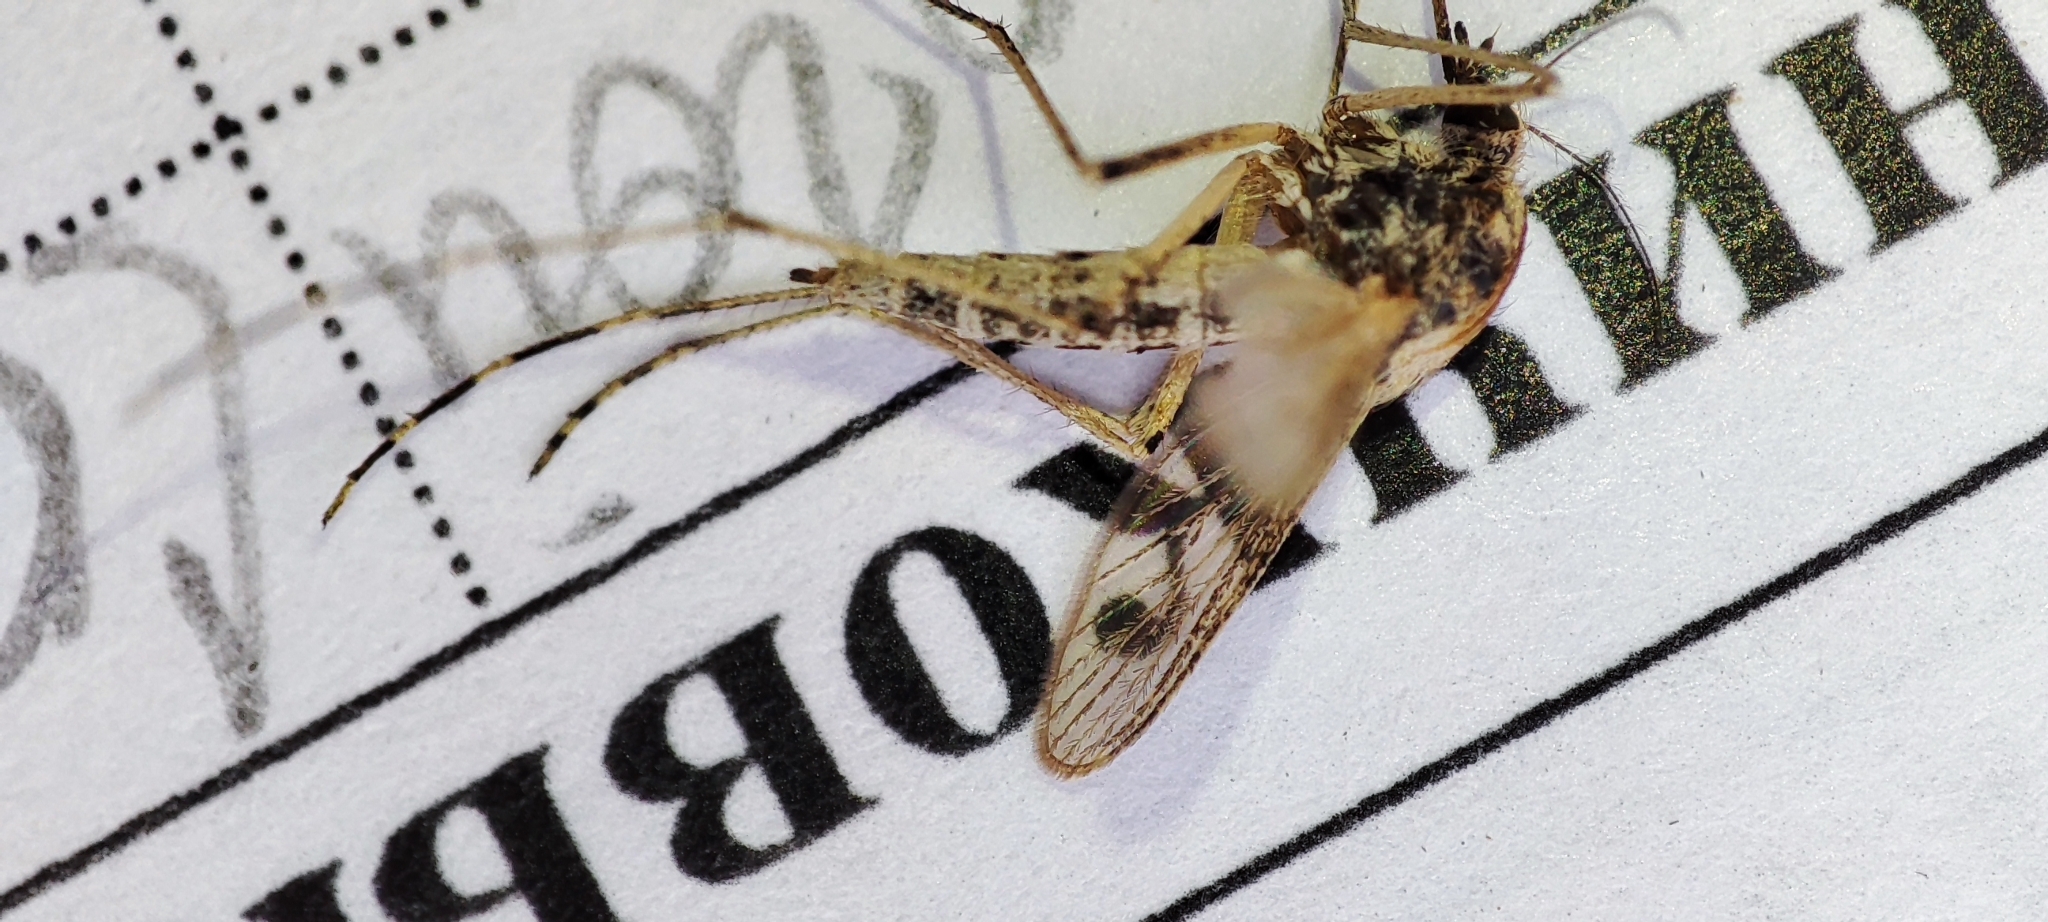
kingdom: Animalia
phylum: Arthropoda
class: Insecta
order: Diptera
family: Culicidae
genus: Aedes
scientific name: Aedes dorsalis
